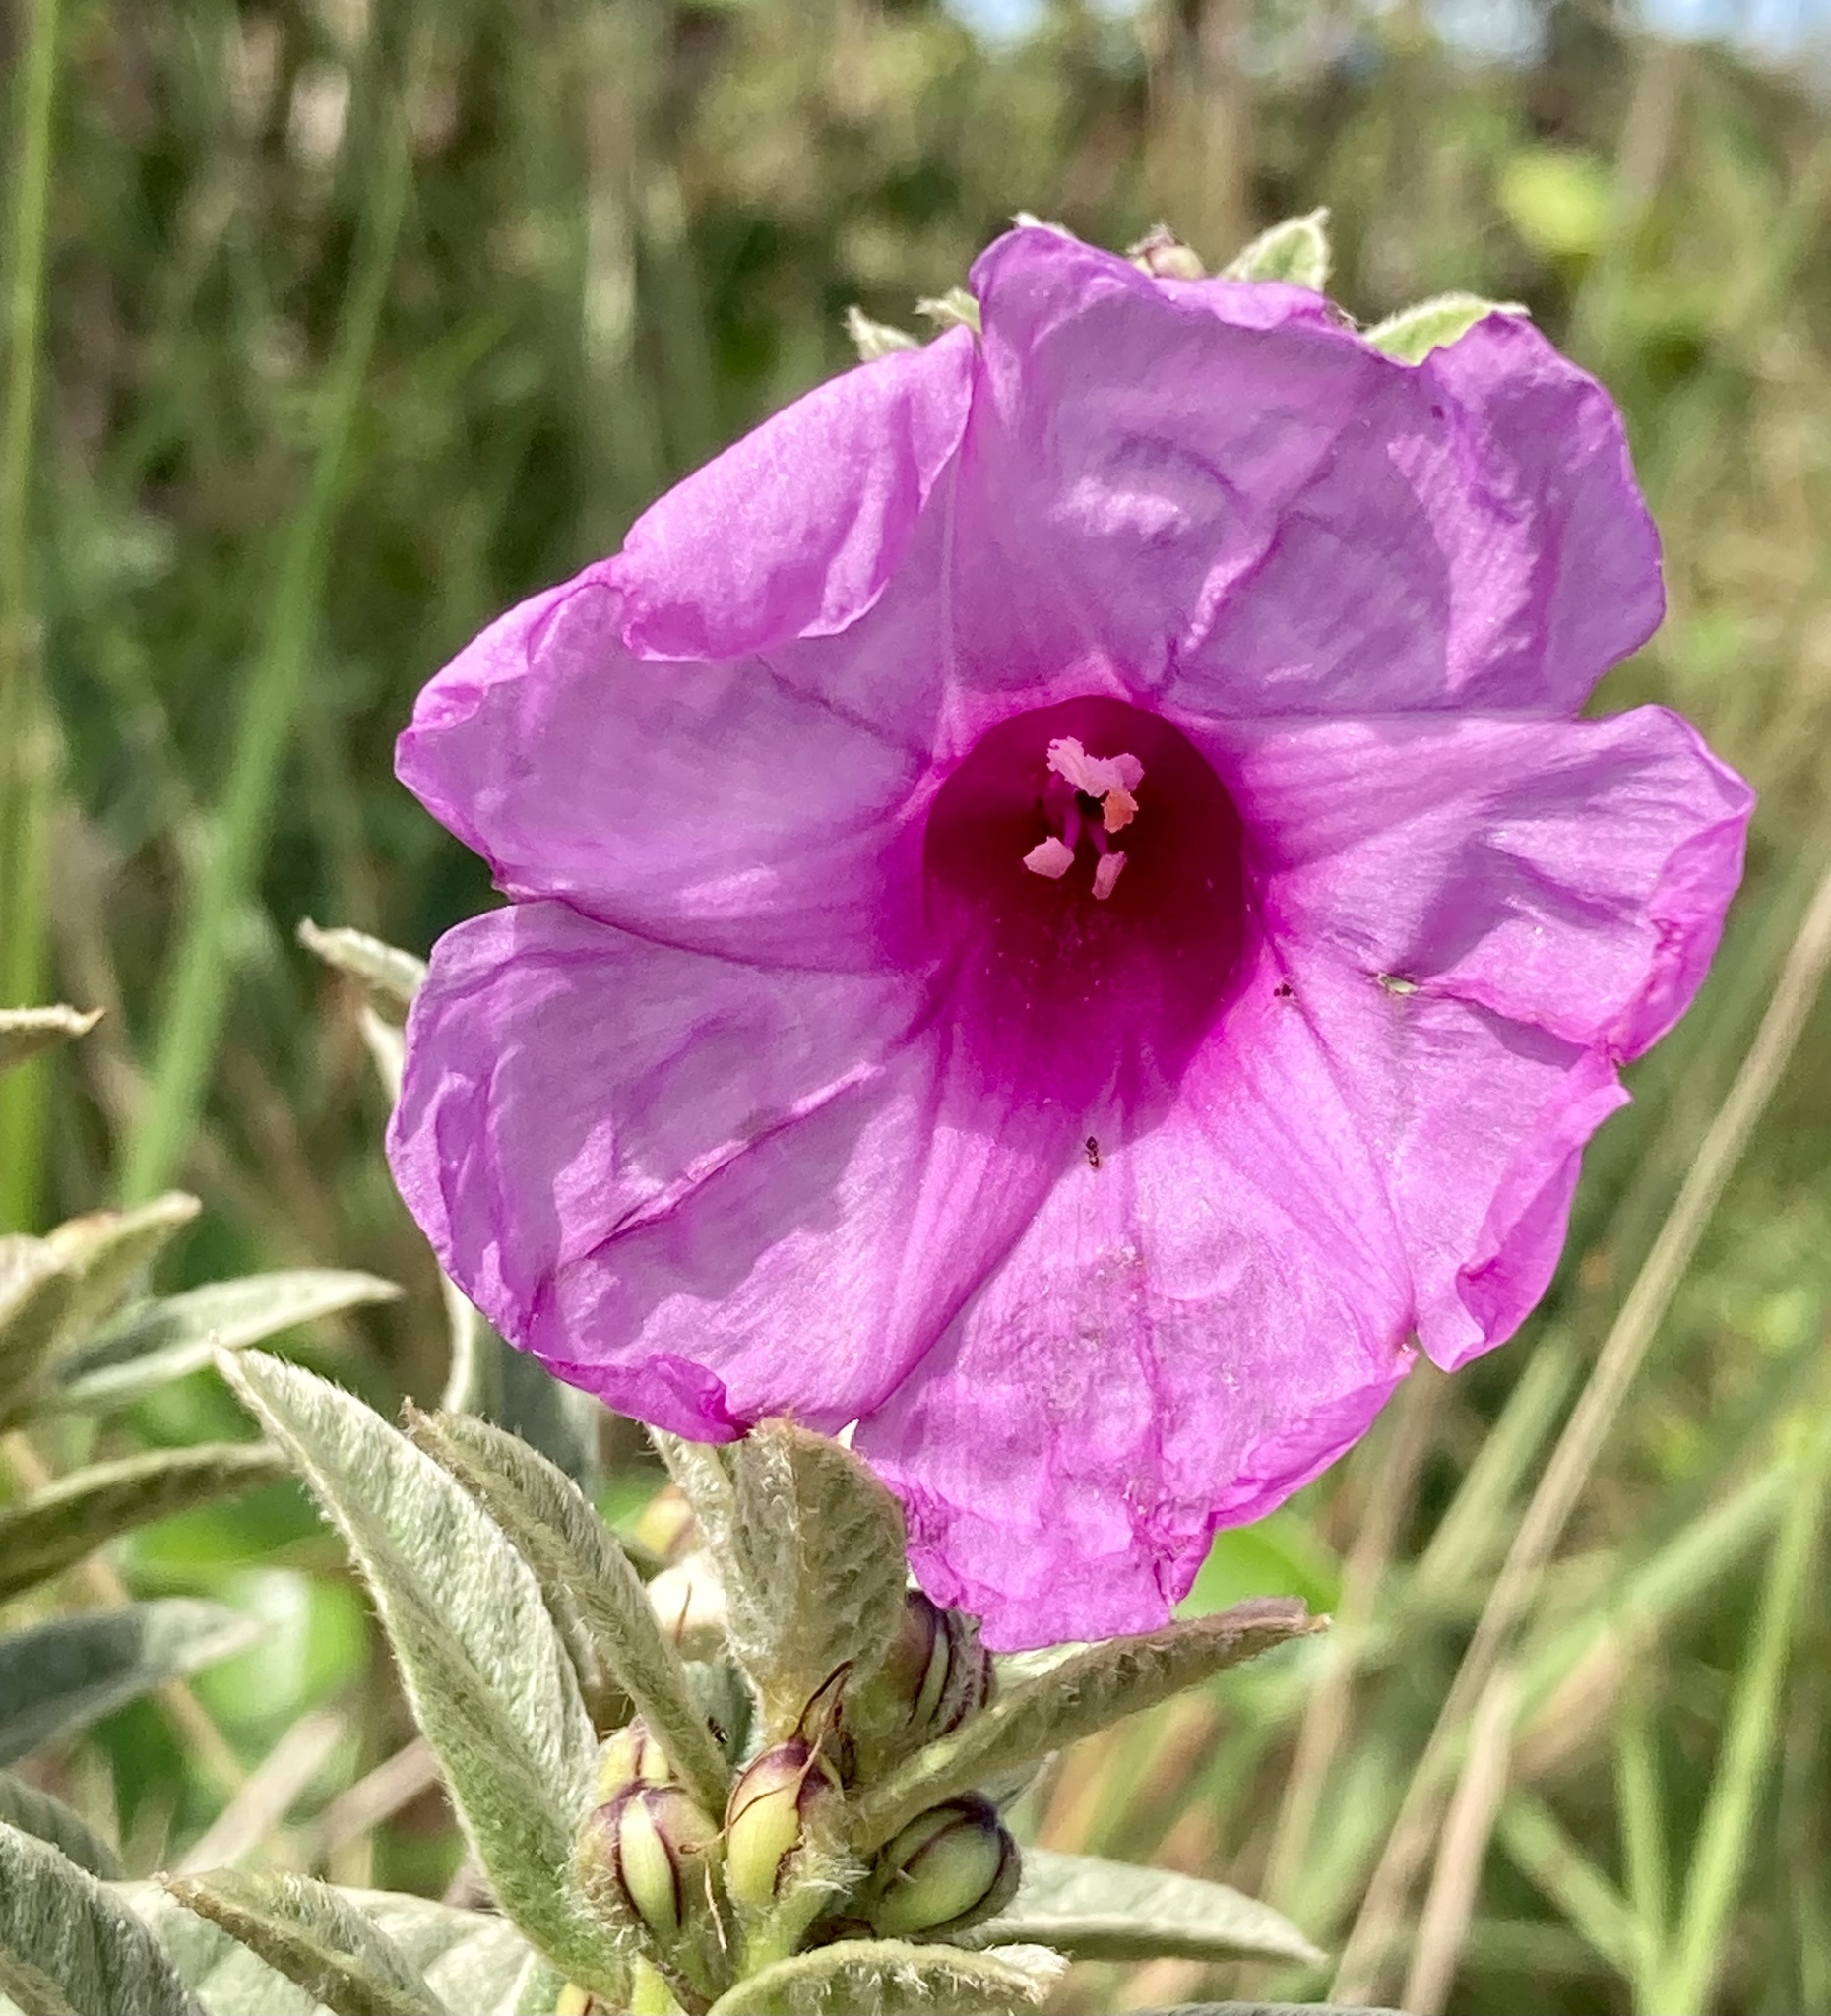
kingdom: Plantae
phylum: Tracheophyta
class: Magnoliopsida
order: Solanales
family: Convolvulaceae
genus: Ipomoea
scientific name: Ipomoea argentea
